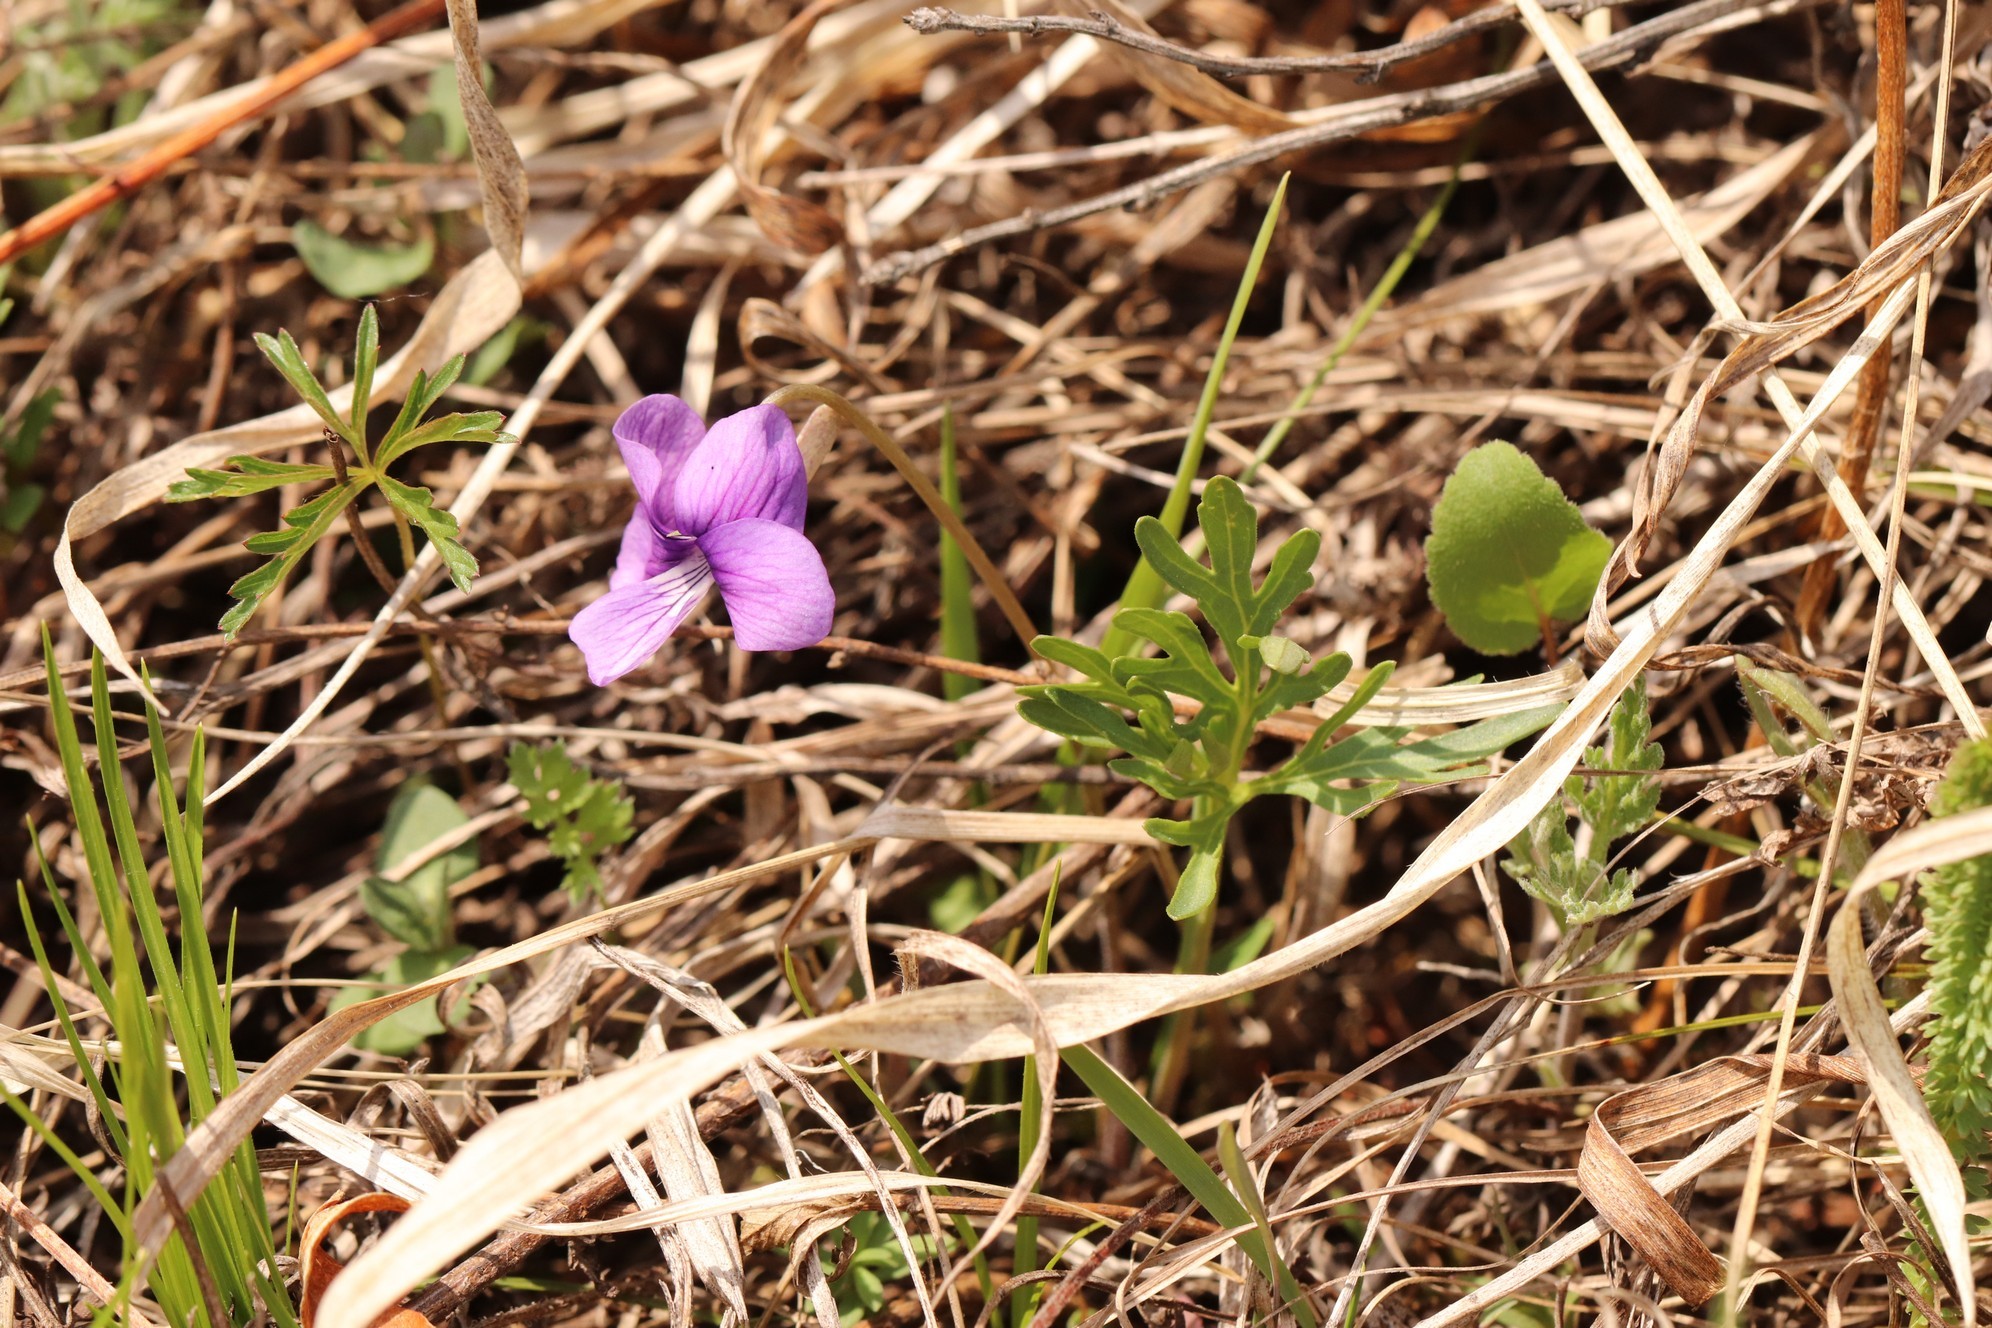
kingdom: Plantae
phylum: Tracheophyta
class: Magnoliopsida
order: Malpighiales
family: Violaceae
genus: Viola
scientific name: Viola multifida
